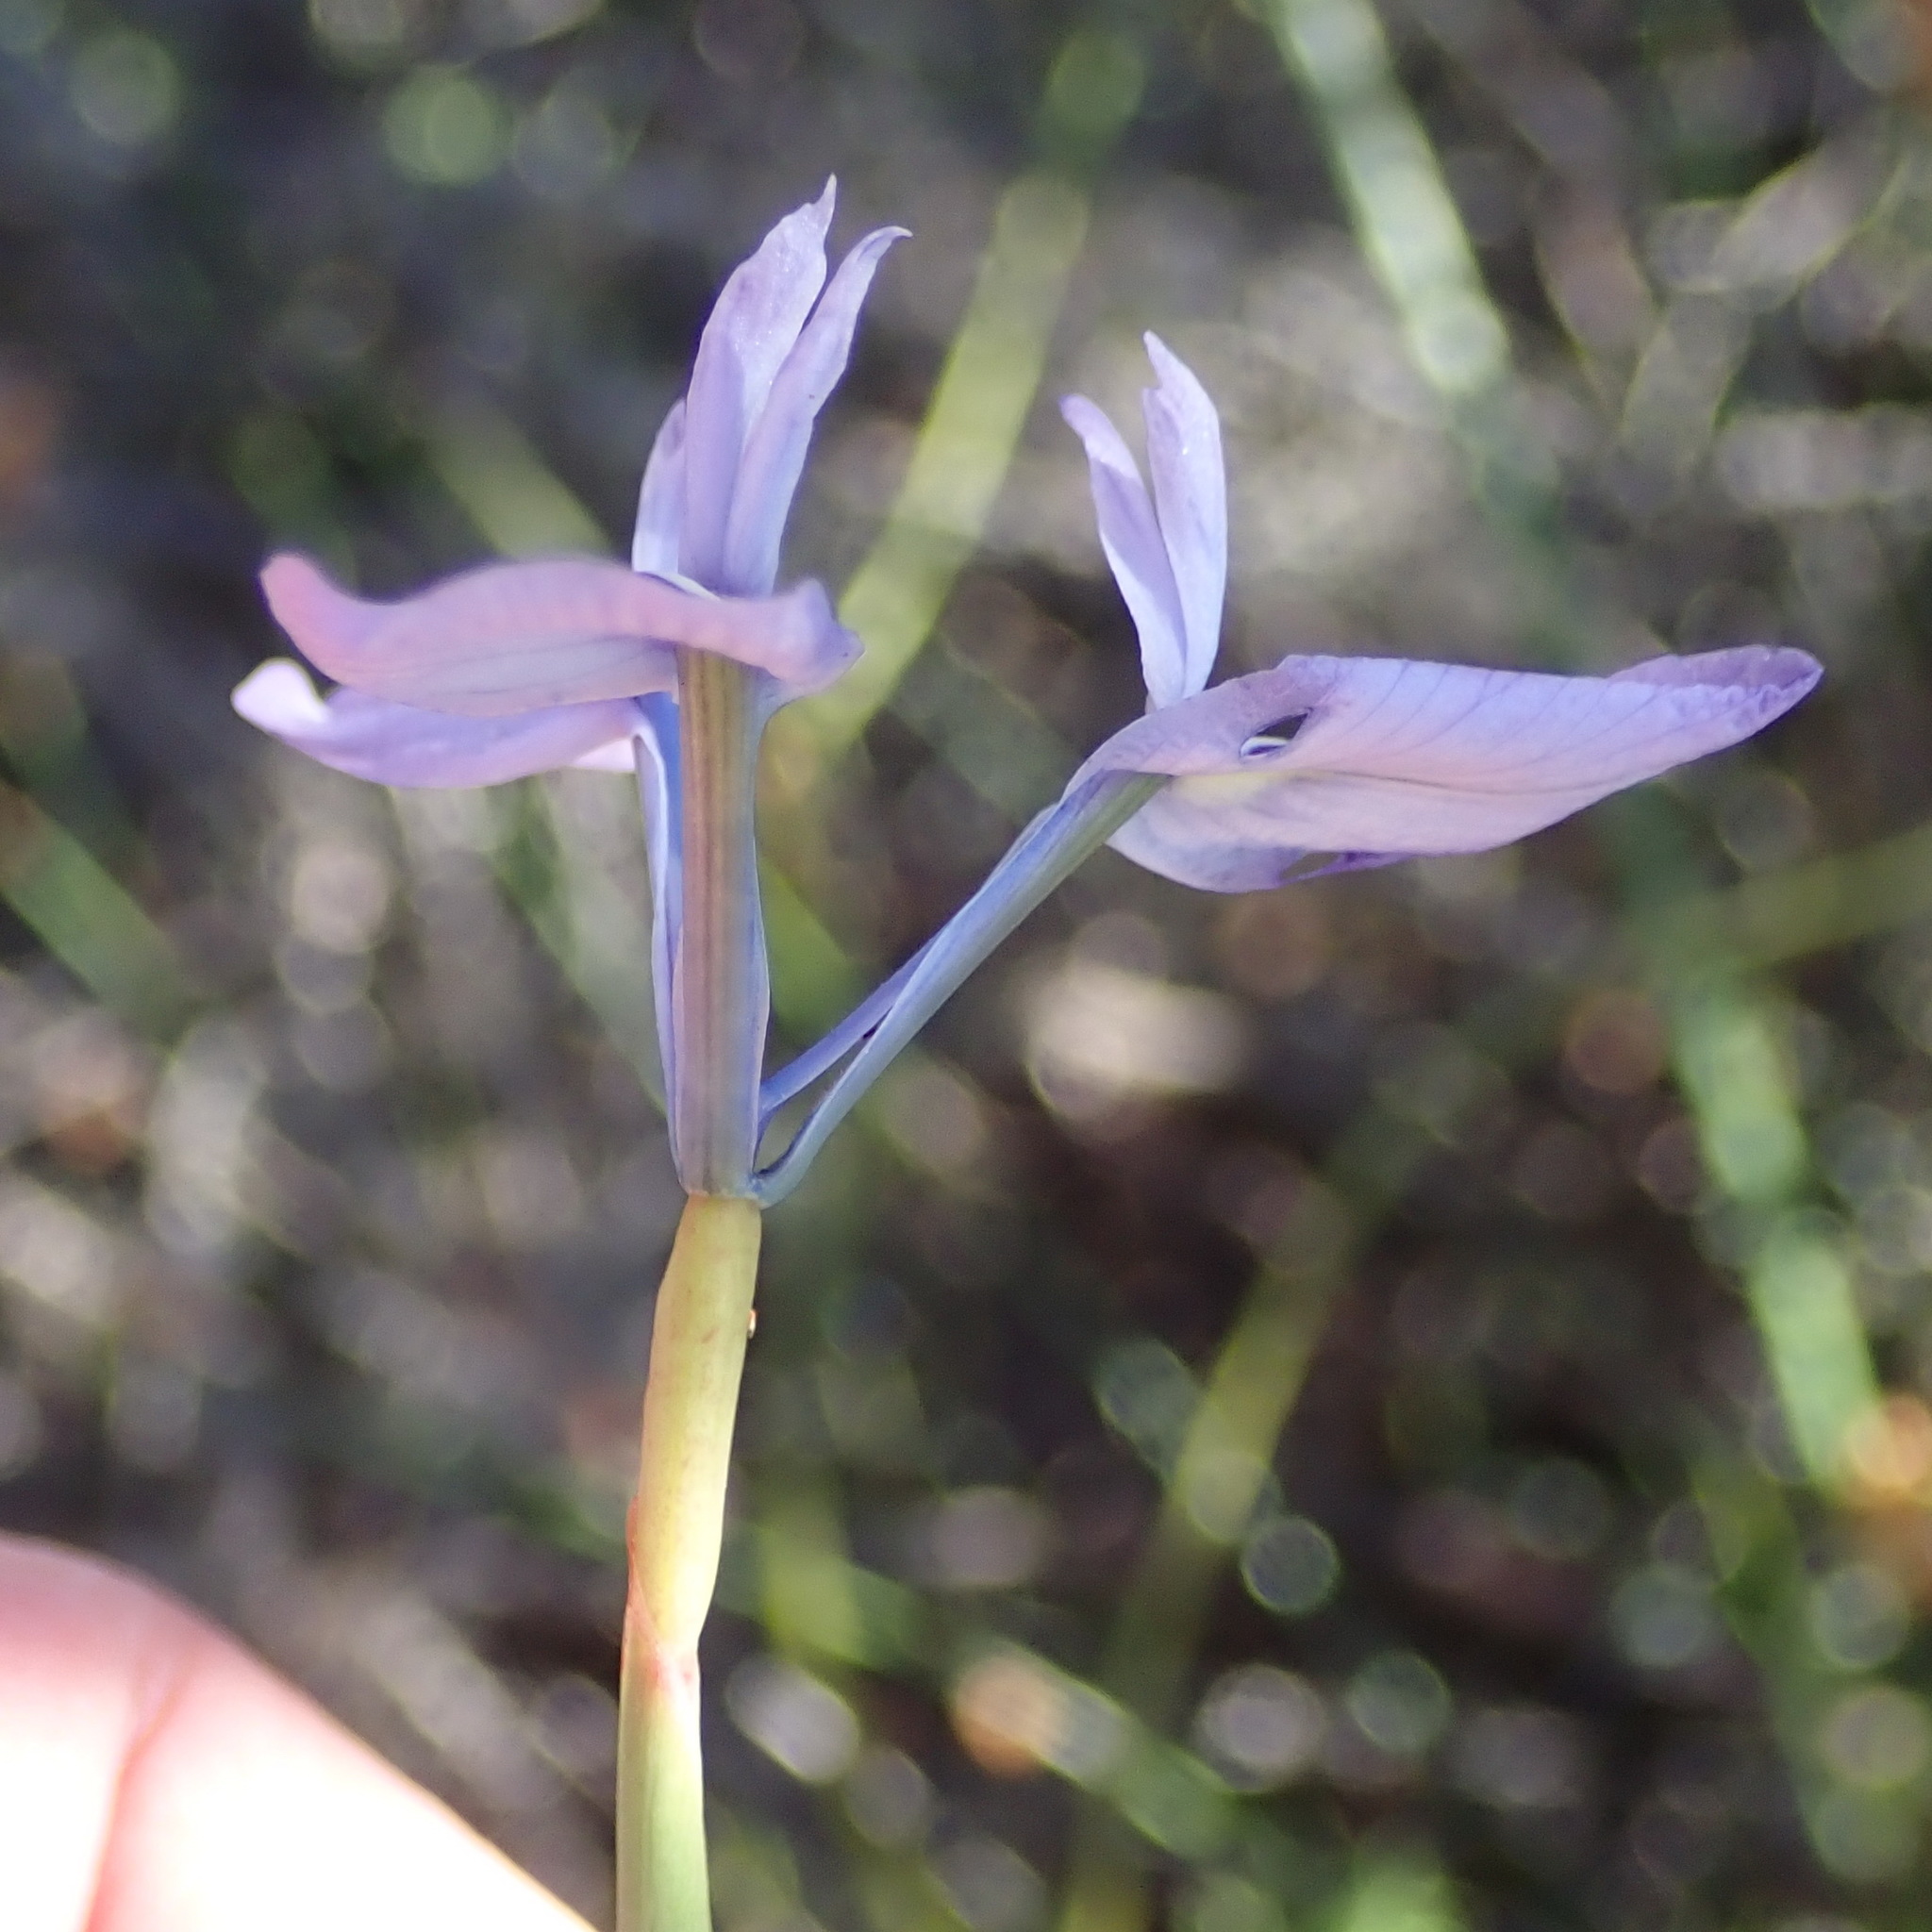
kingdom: Plantae
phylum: Tracheophyta
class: Liliopsida
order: Asparagales
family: Iridaceae
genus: Moraea
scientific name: Moraea tripetala
